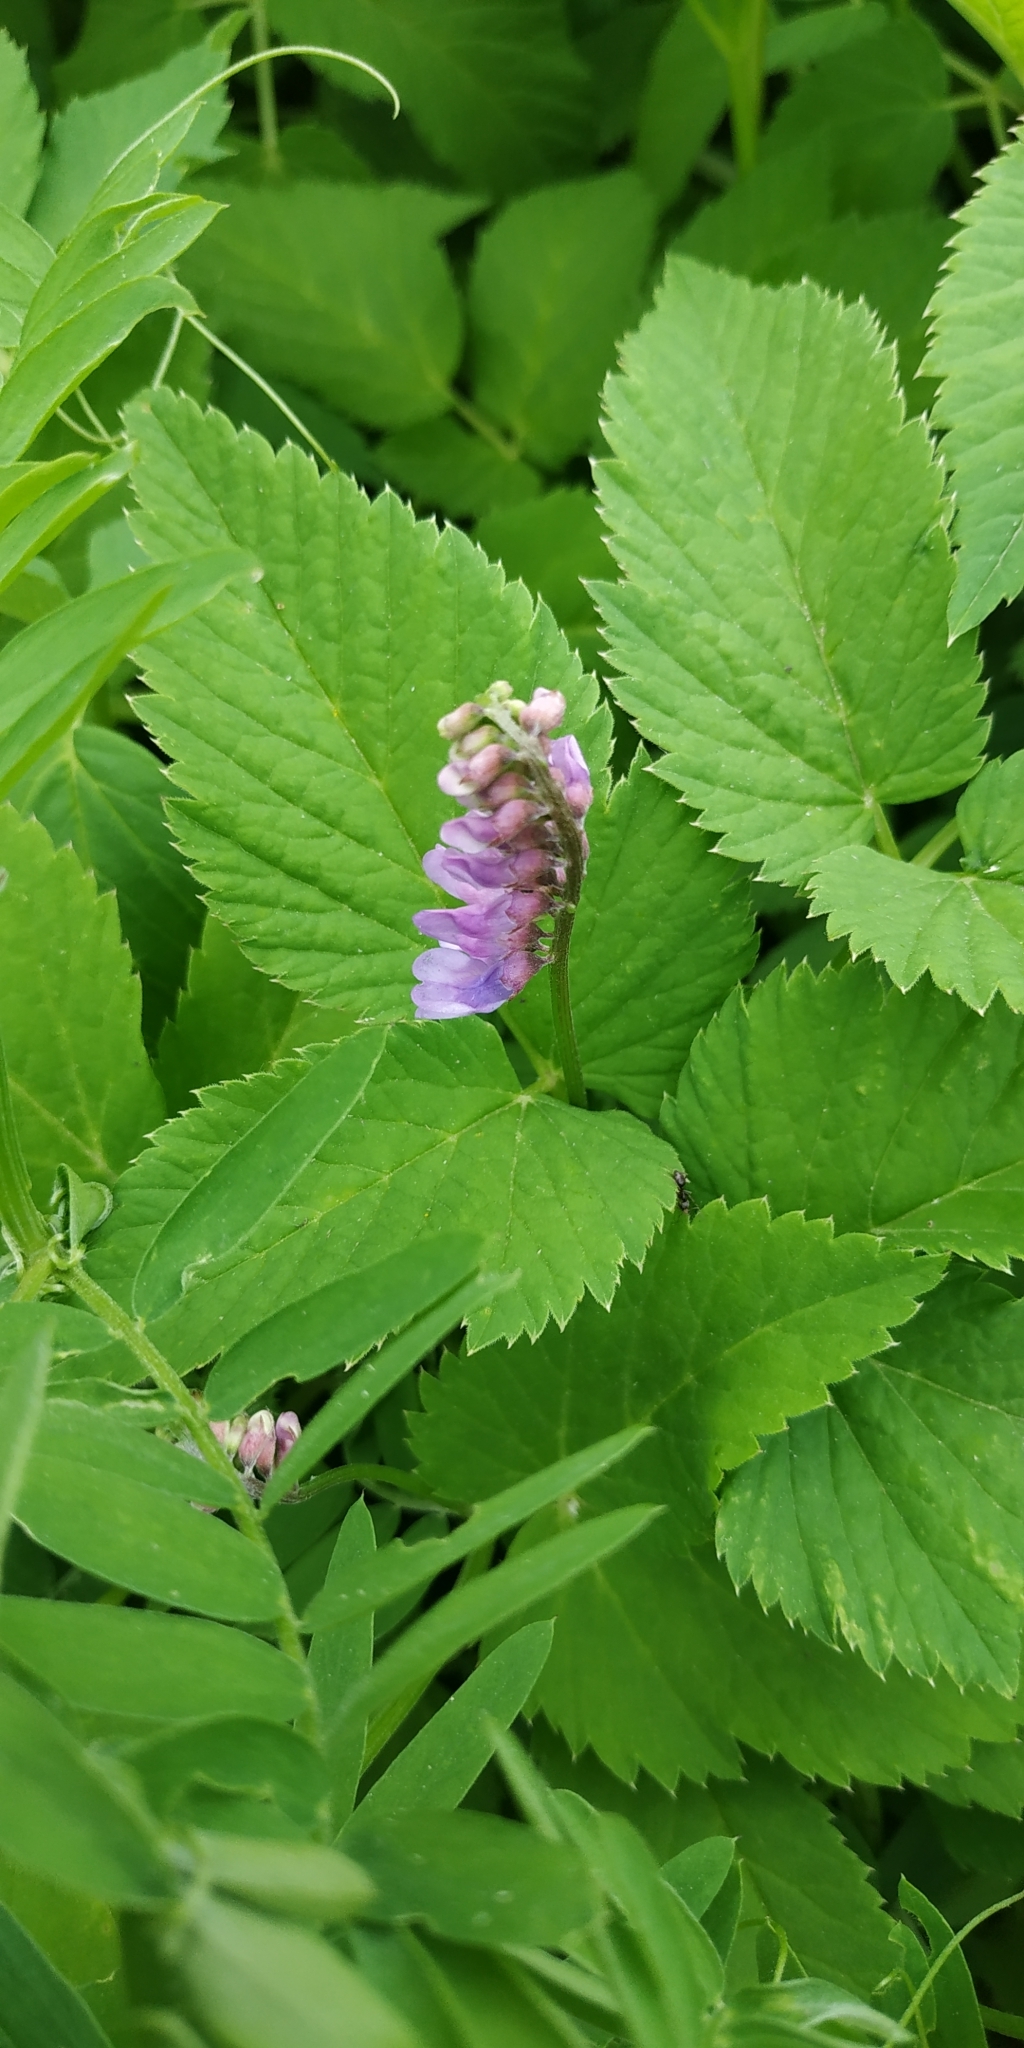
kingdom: Plantae
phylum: Tracheophyta
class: Magnoliopsida
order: Fabales
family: Fabaceae
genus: Vicia
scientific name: Vicia cracca
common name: Bird vetch
